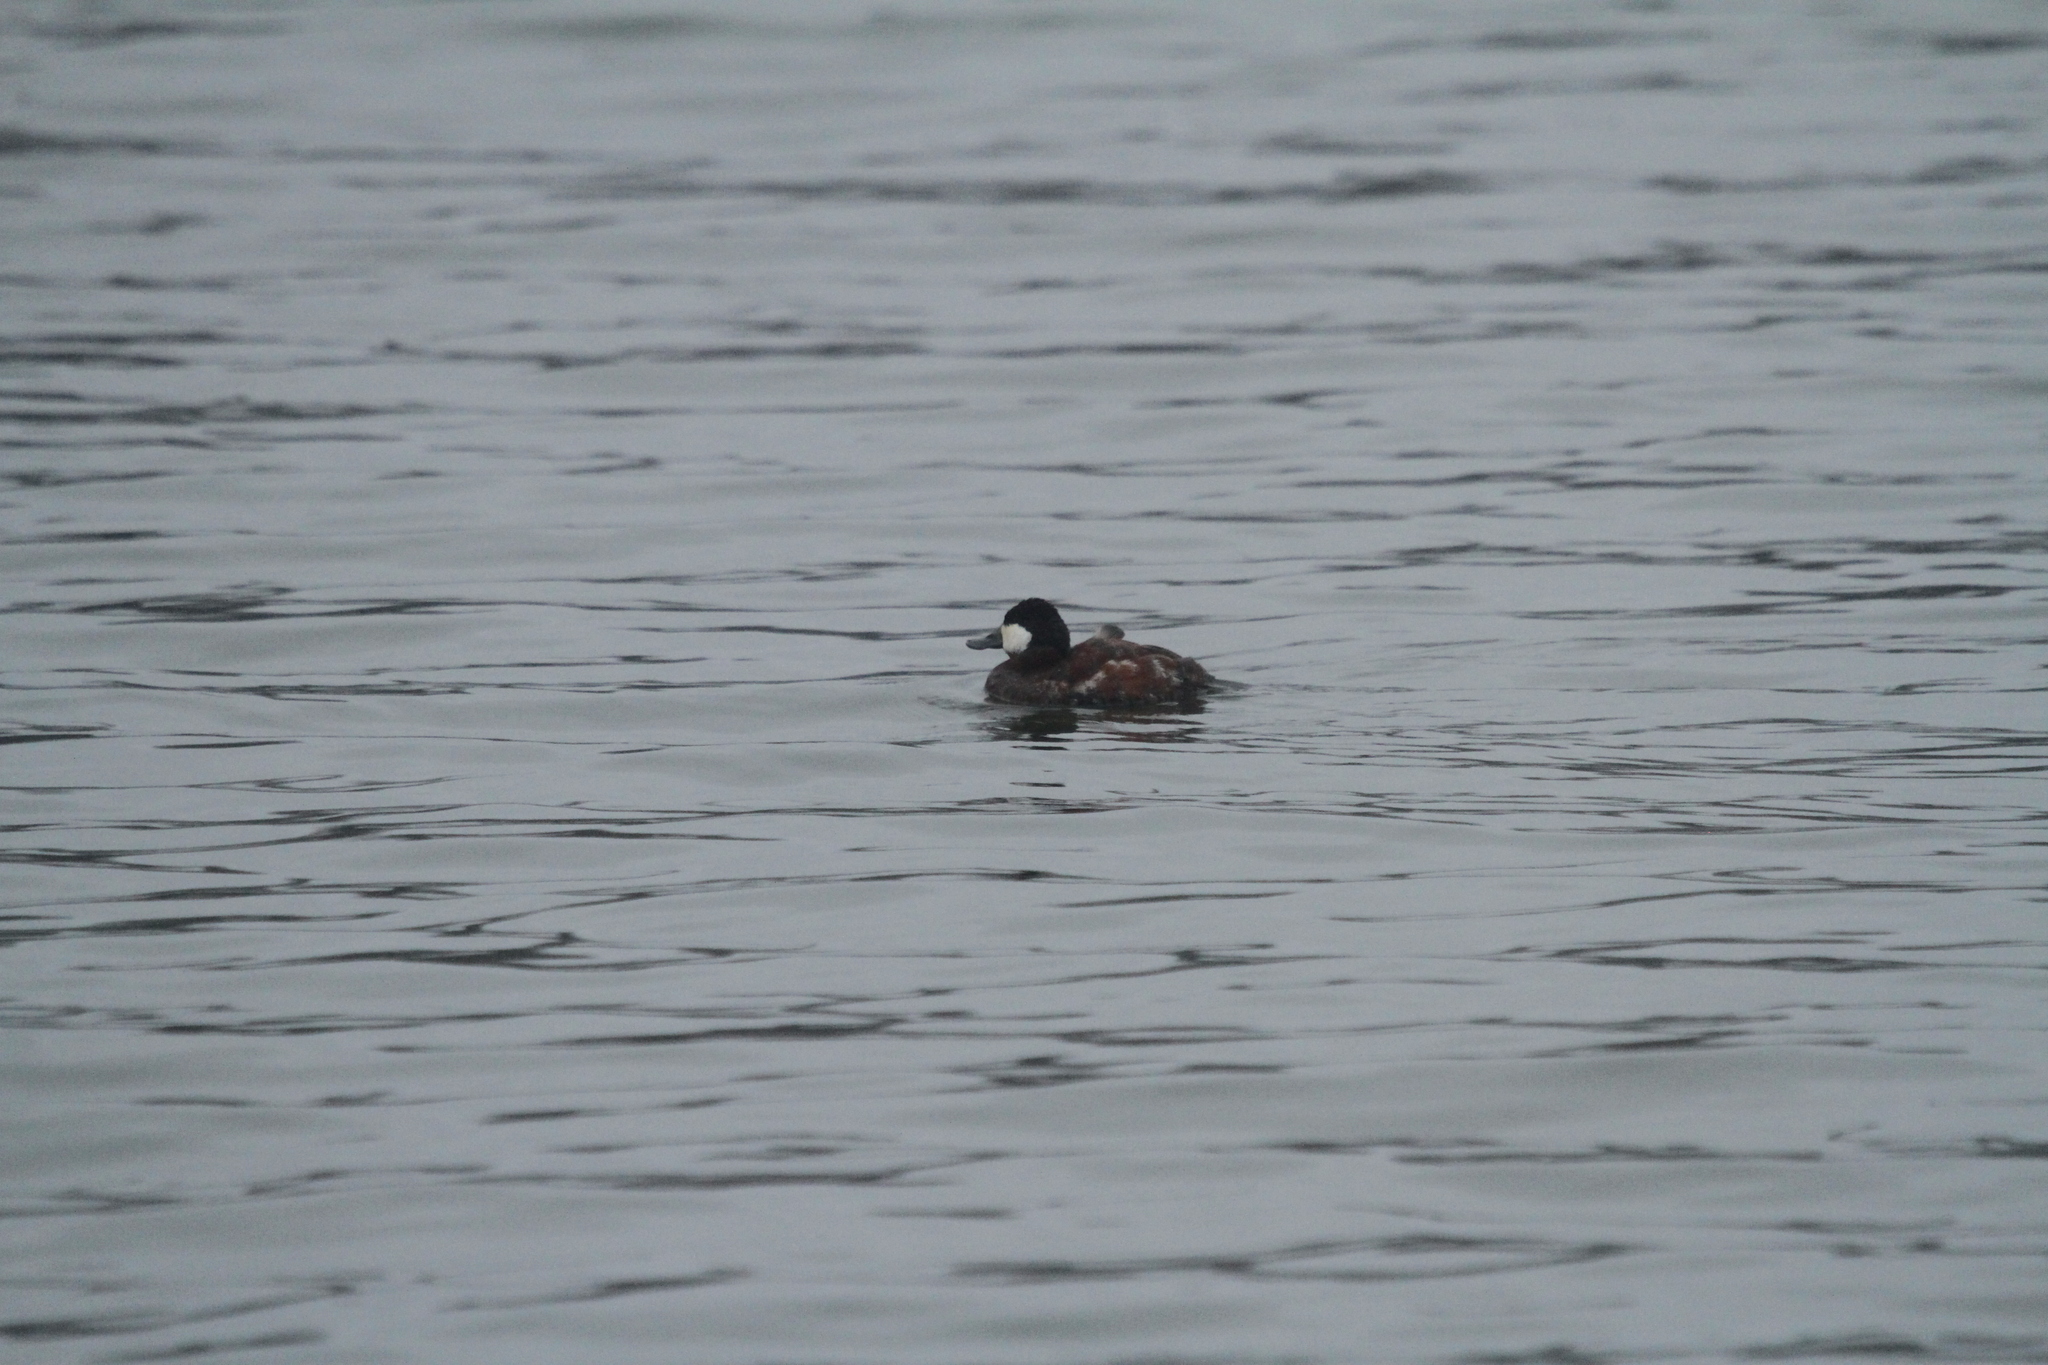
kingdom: Animalia
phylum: Chordata
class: Aves
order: Anseriformes
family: Anatidae
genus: Oxyura
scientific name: Oxyura jamaicensis
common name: Ruddy duck
